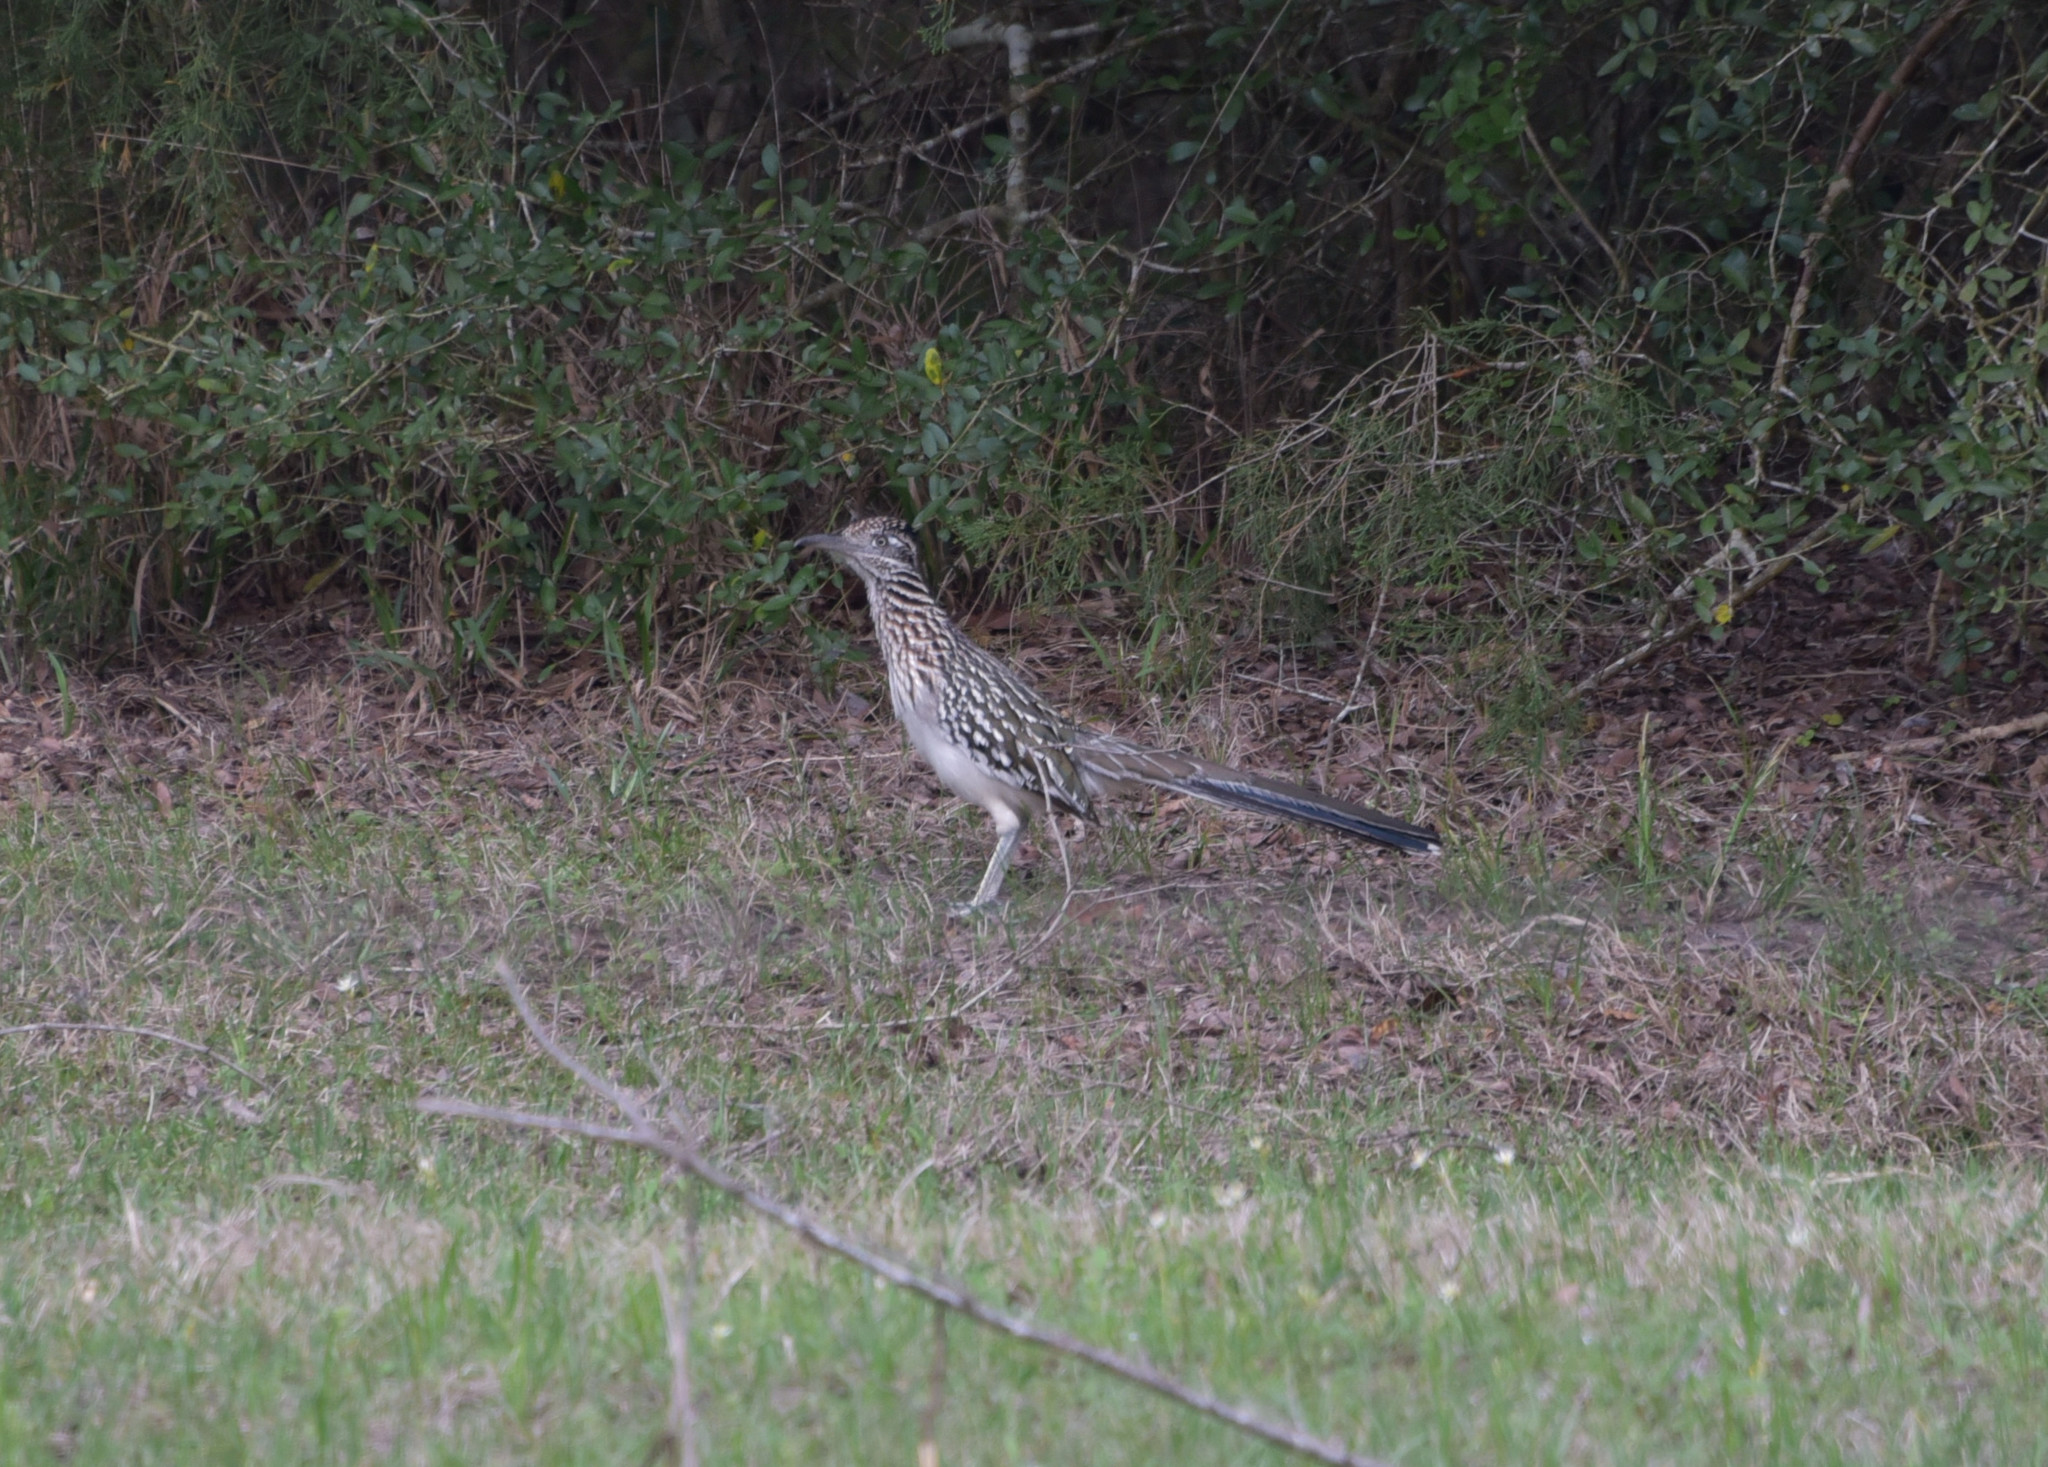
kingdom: Animalia
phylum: Chordata
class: Aves
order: Cuculiformes
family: Cuculidae
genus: Geococcyx
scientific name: Geococcyx californianus
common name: Greater roadrunner
